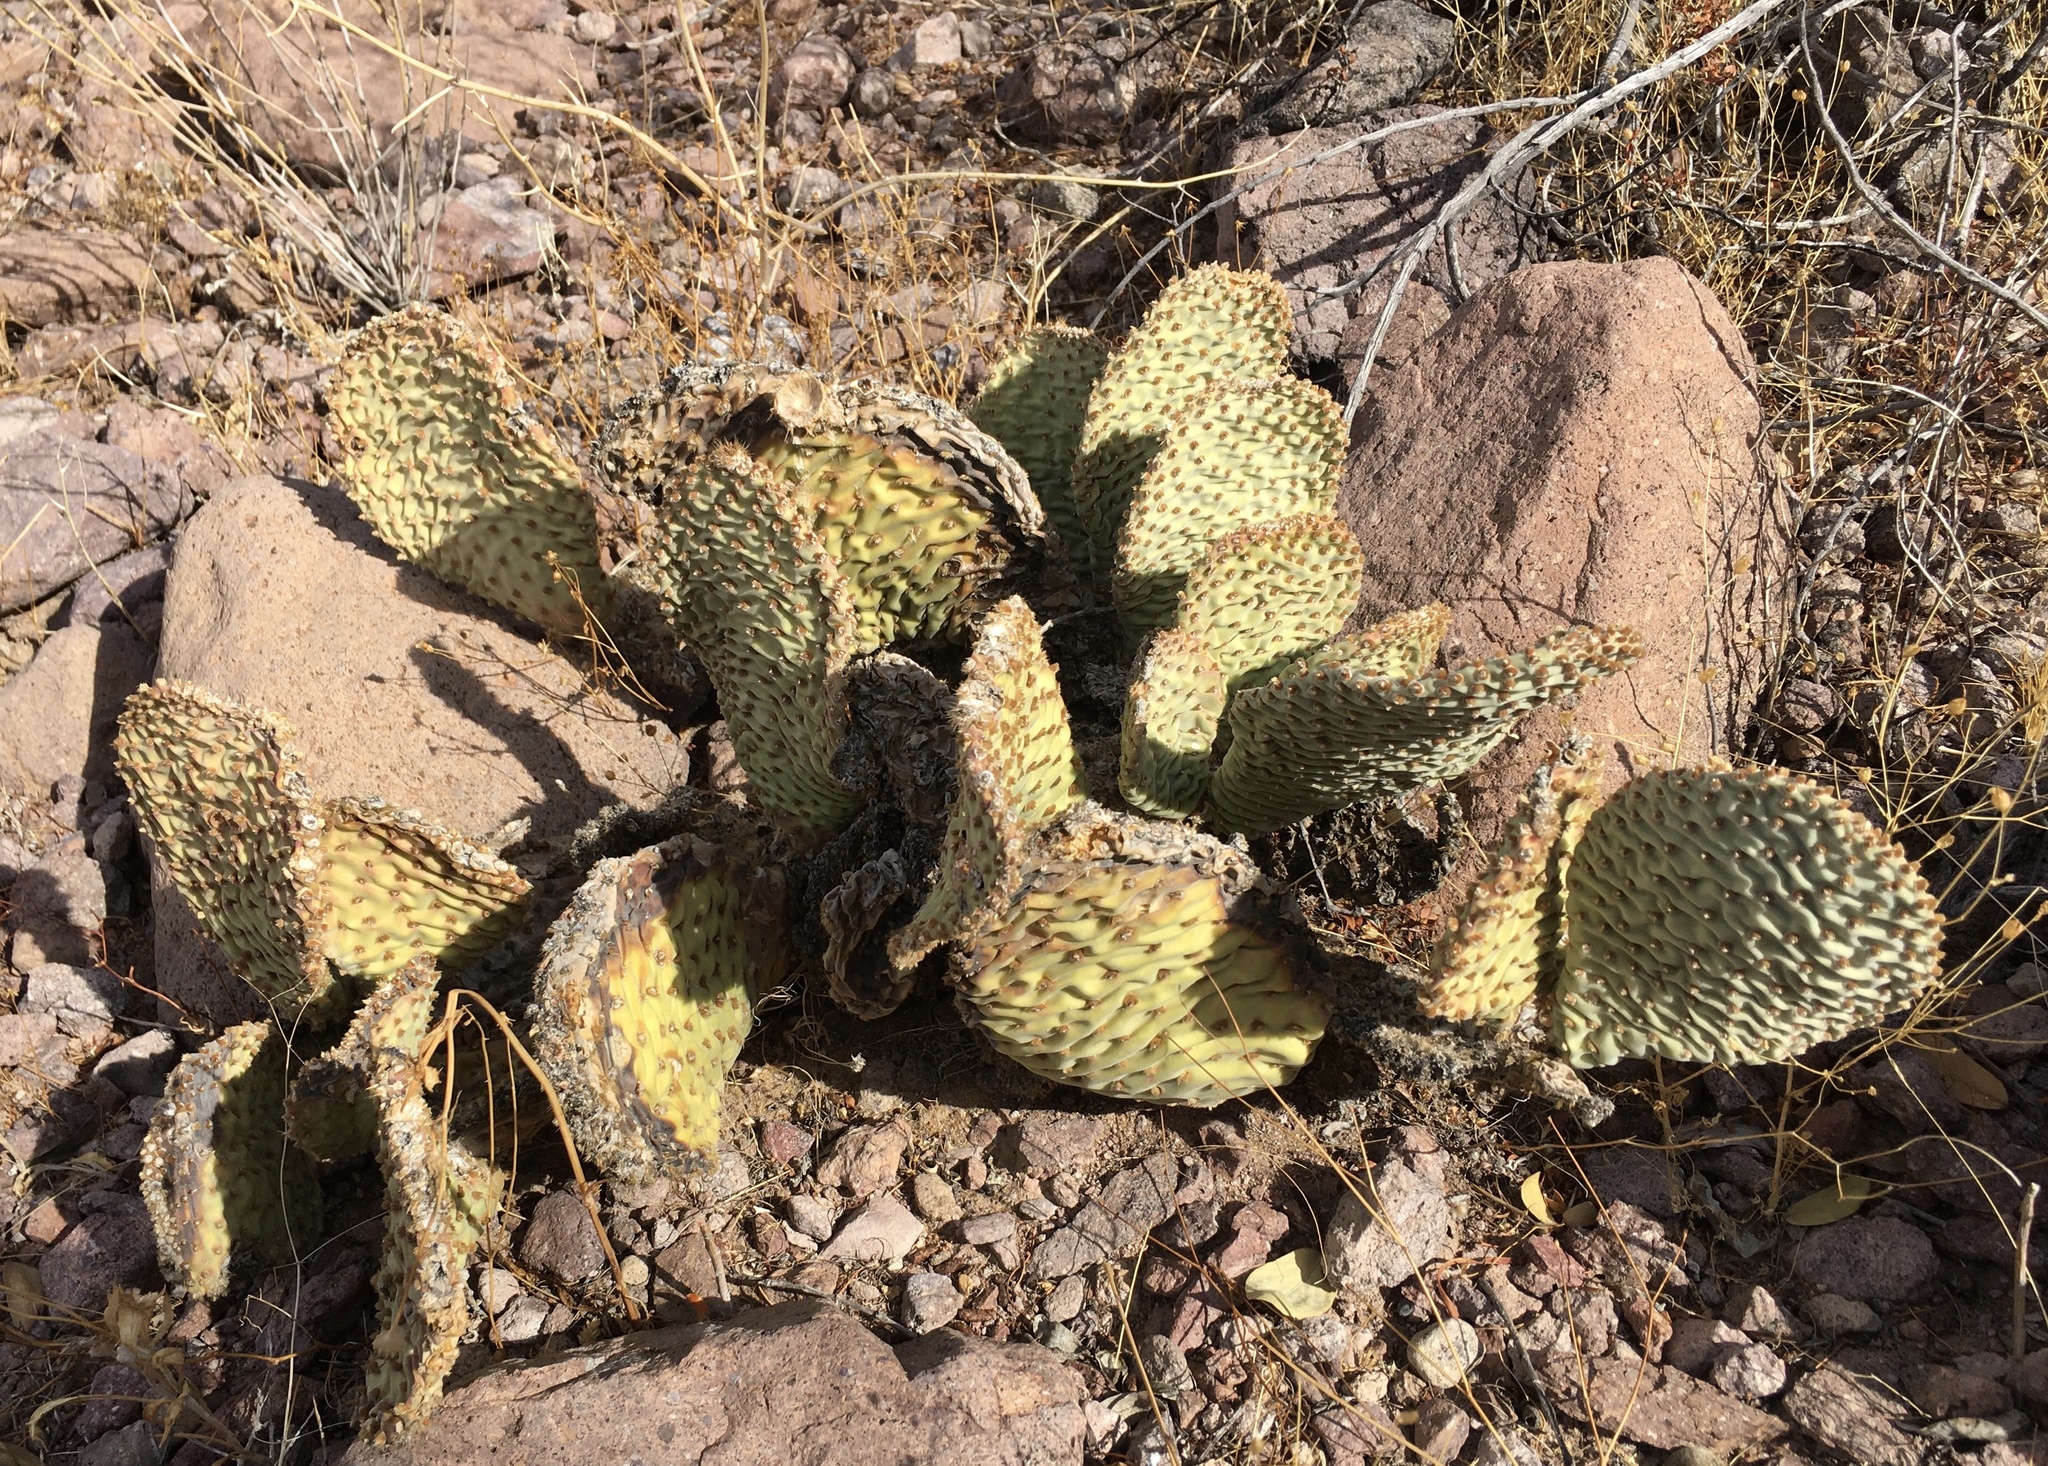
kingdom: Plantae
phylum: Tracheophyta
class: Magnoliopsida
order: Caryophyllales
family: Cactaceae
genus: Opuntia
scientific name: Opuntia basilaris
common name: Beavertail prickly-pear
